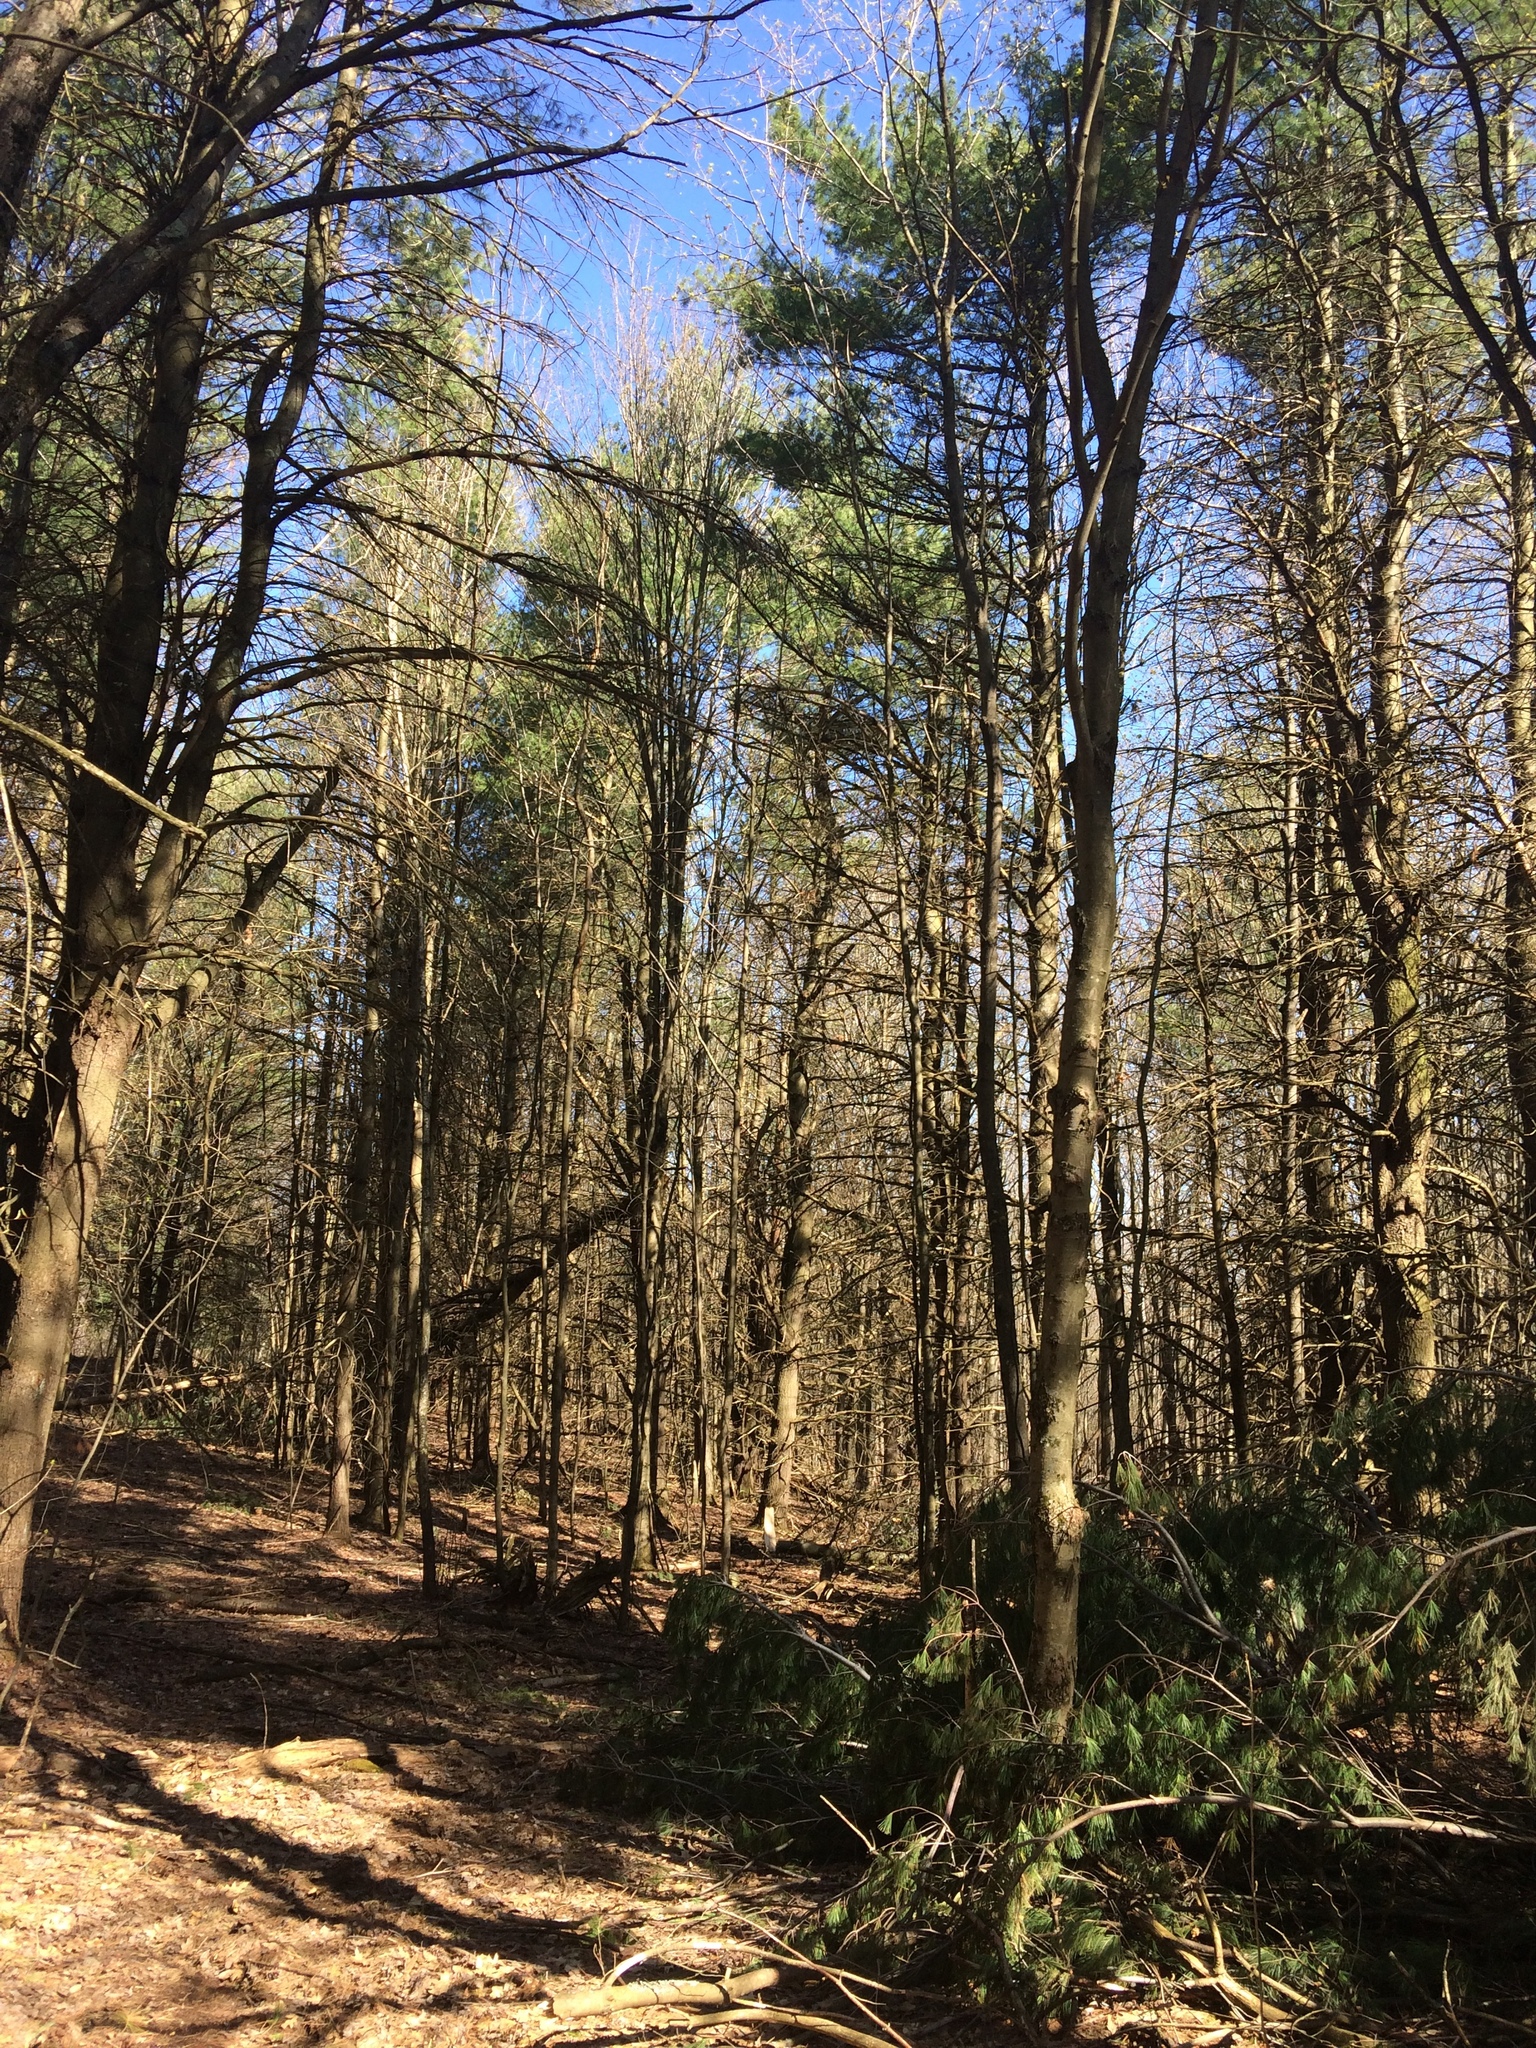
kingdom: Plantae
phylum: Tracheophyta
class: Pinopsida
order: Pinales
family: Pinaceae
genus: Pinus
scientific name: Pinus strobus
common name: Weymouth pine
